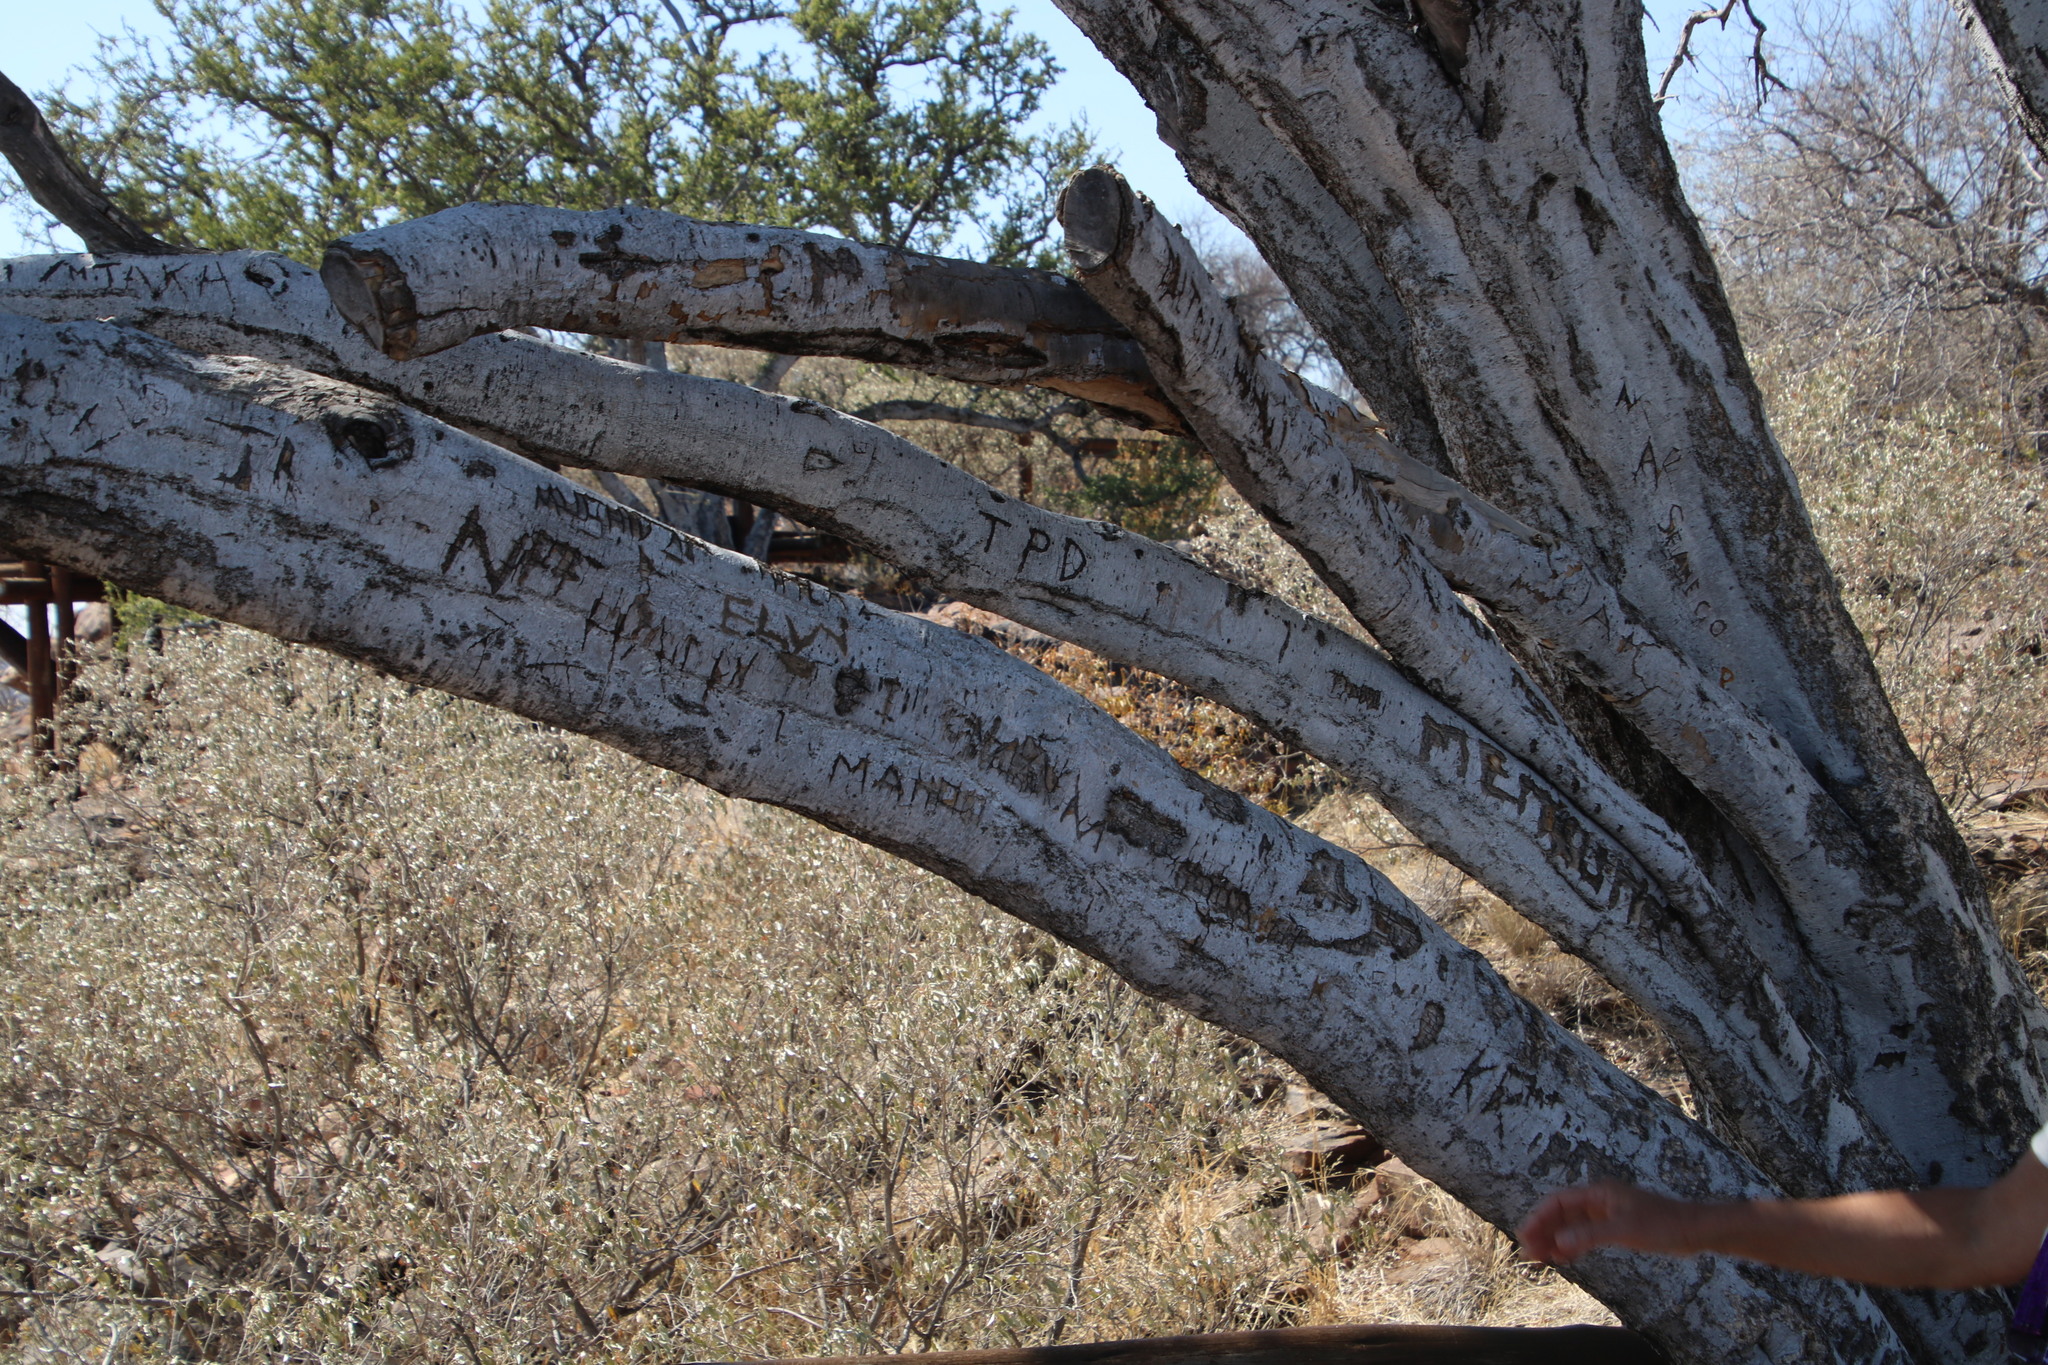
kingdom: Plantae
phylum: Tracheophyta
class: Magnoliopsida
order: Brassicales
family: Capparaceae
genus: Boscia
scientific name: Boscia albitrunca
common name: Caper bush
